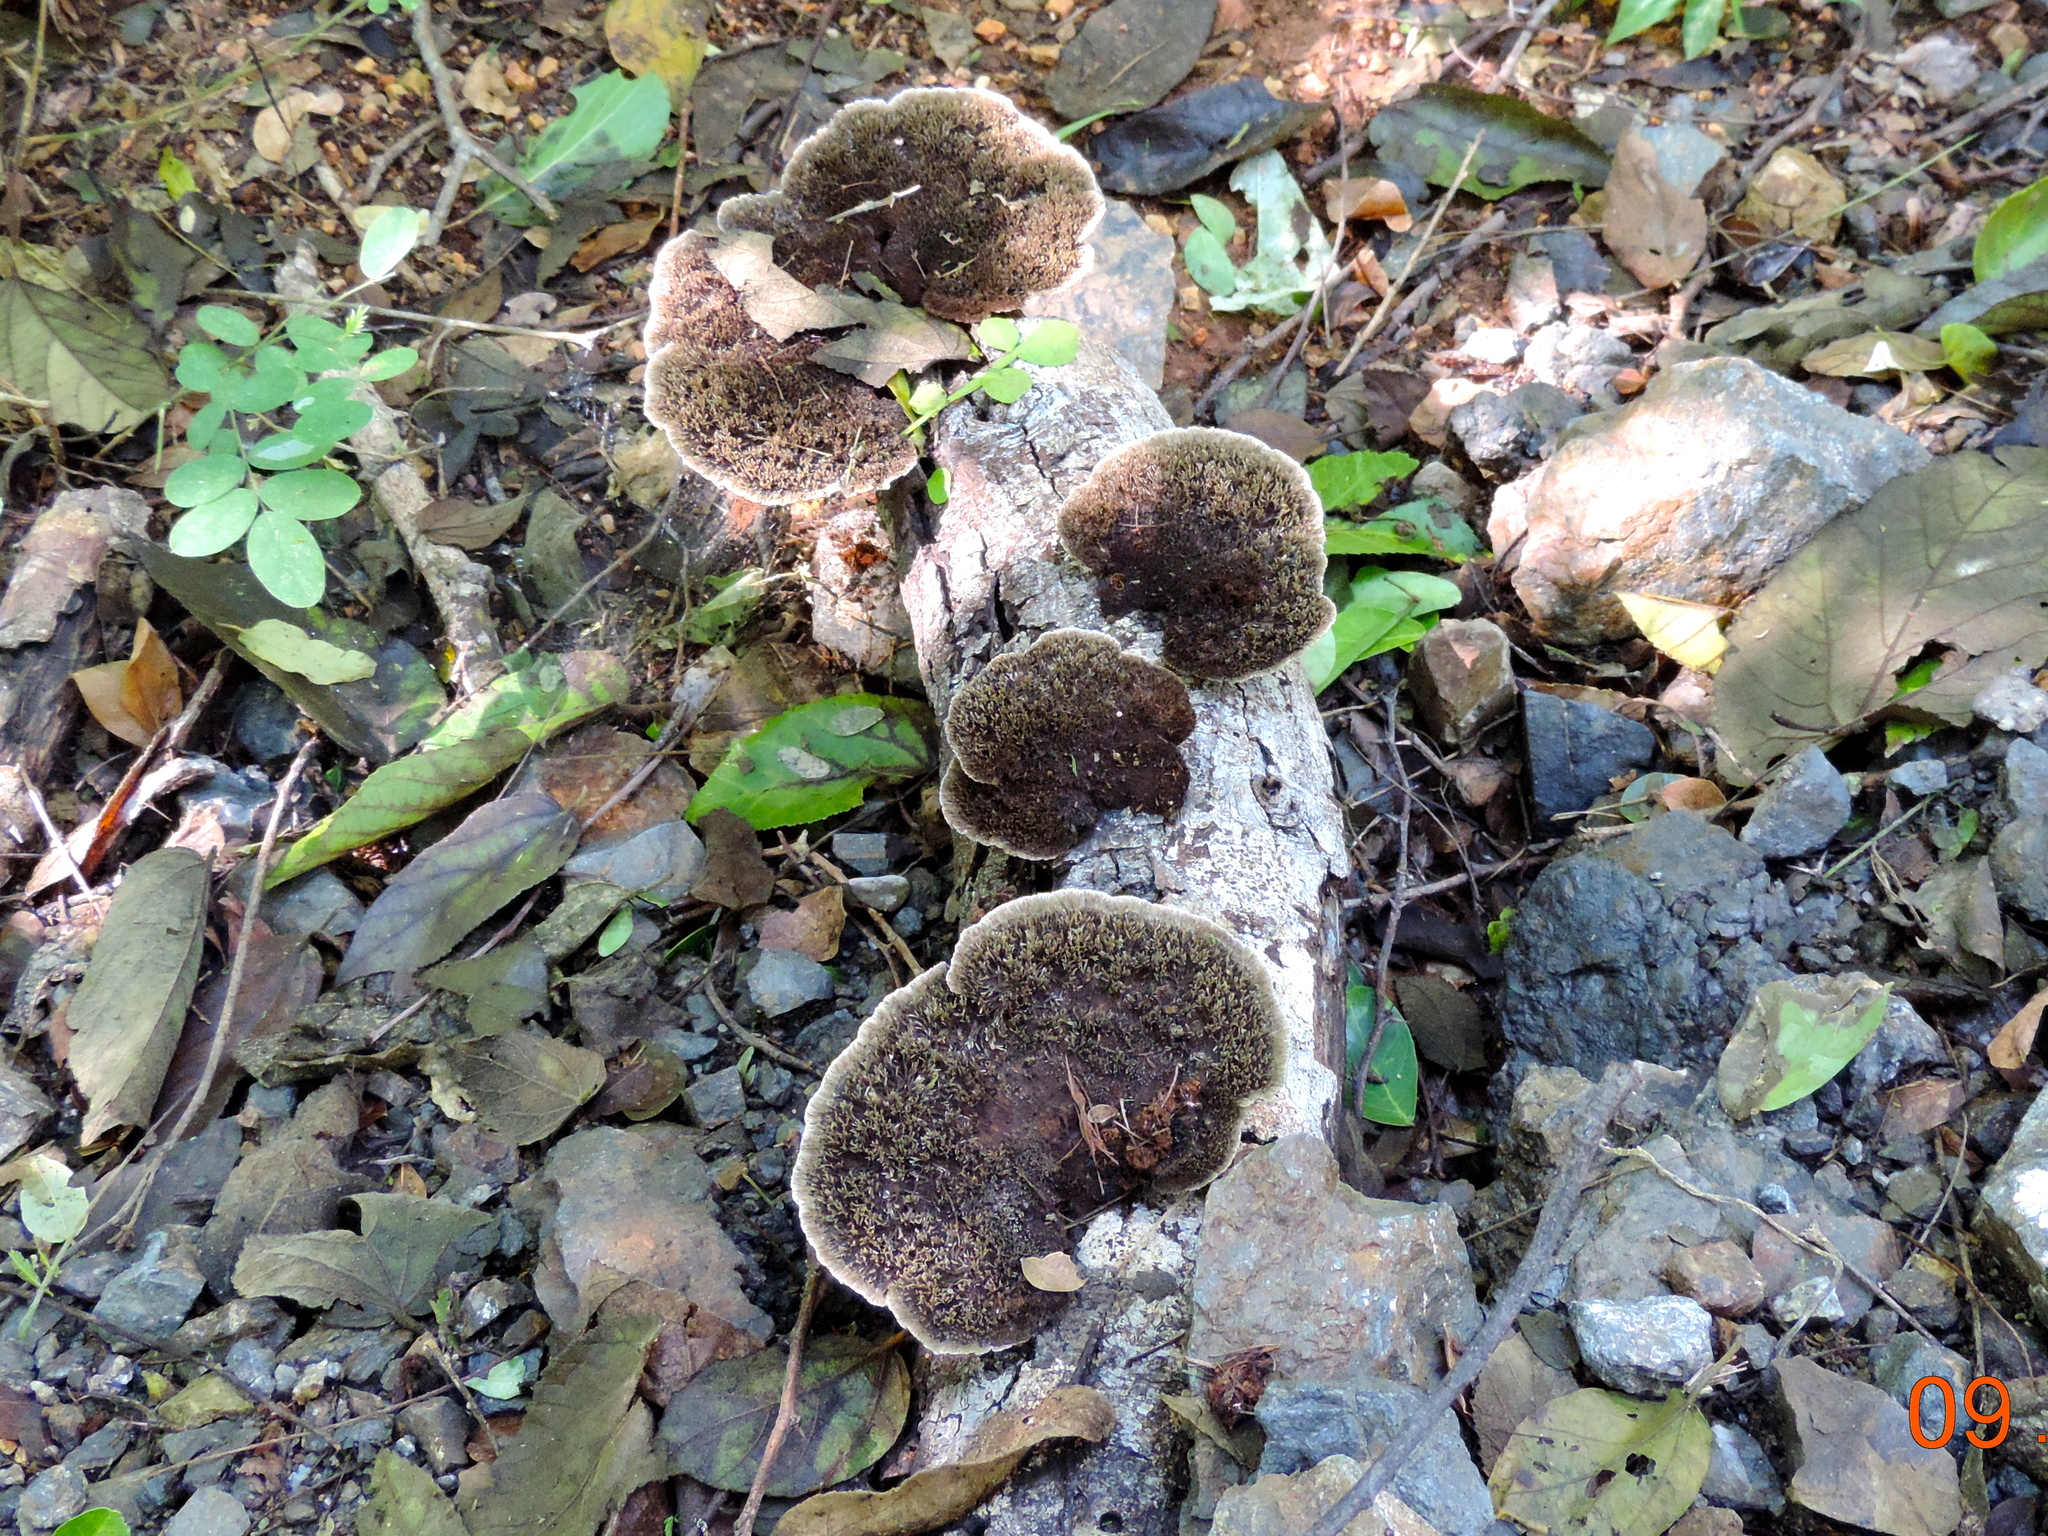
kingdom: Fungi
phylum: Basidiomycota
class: Agaricomycetes
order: Polyporales
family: Cerrenaceae
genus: Cerrena
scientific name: Cerrena hydnoides
